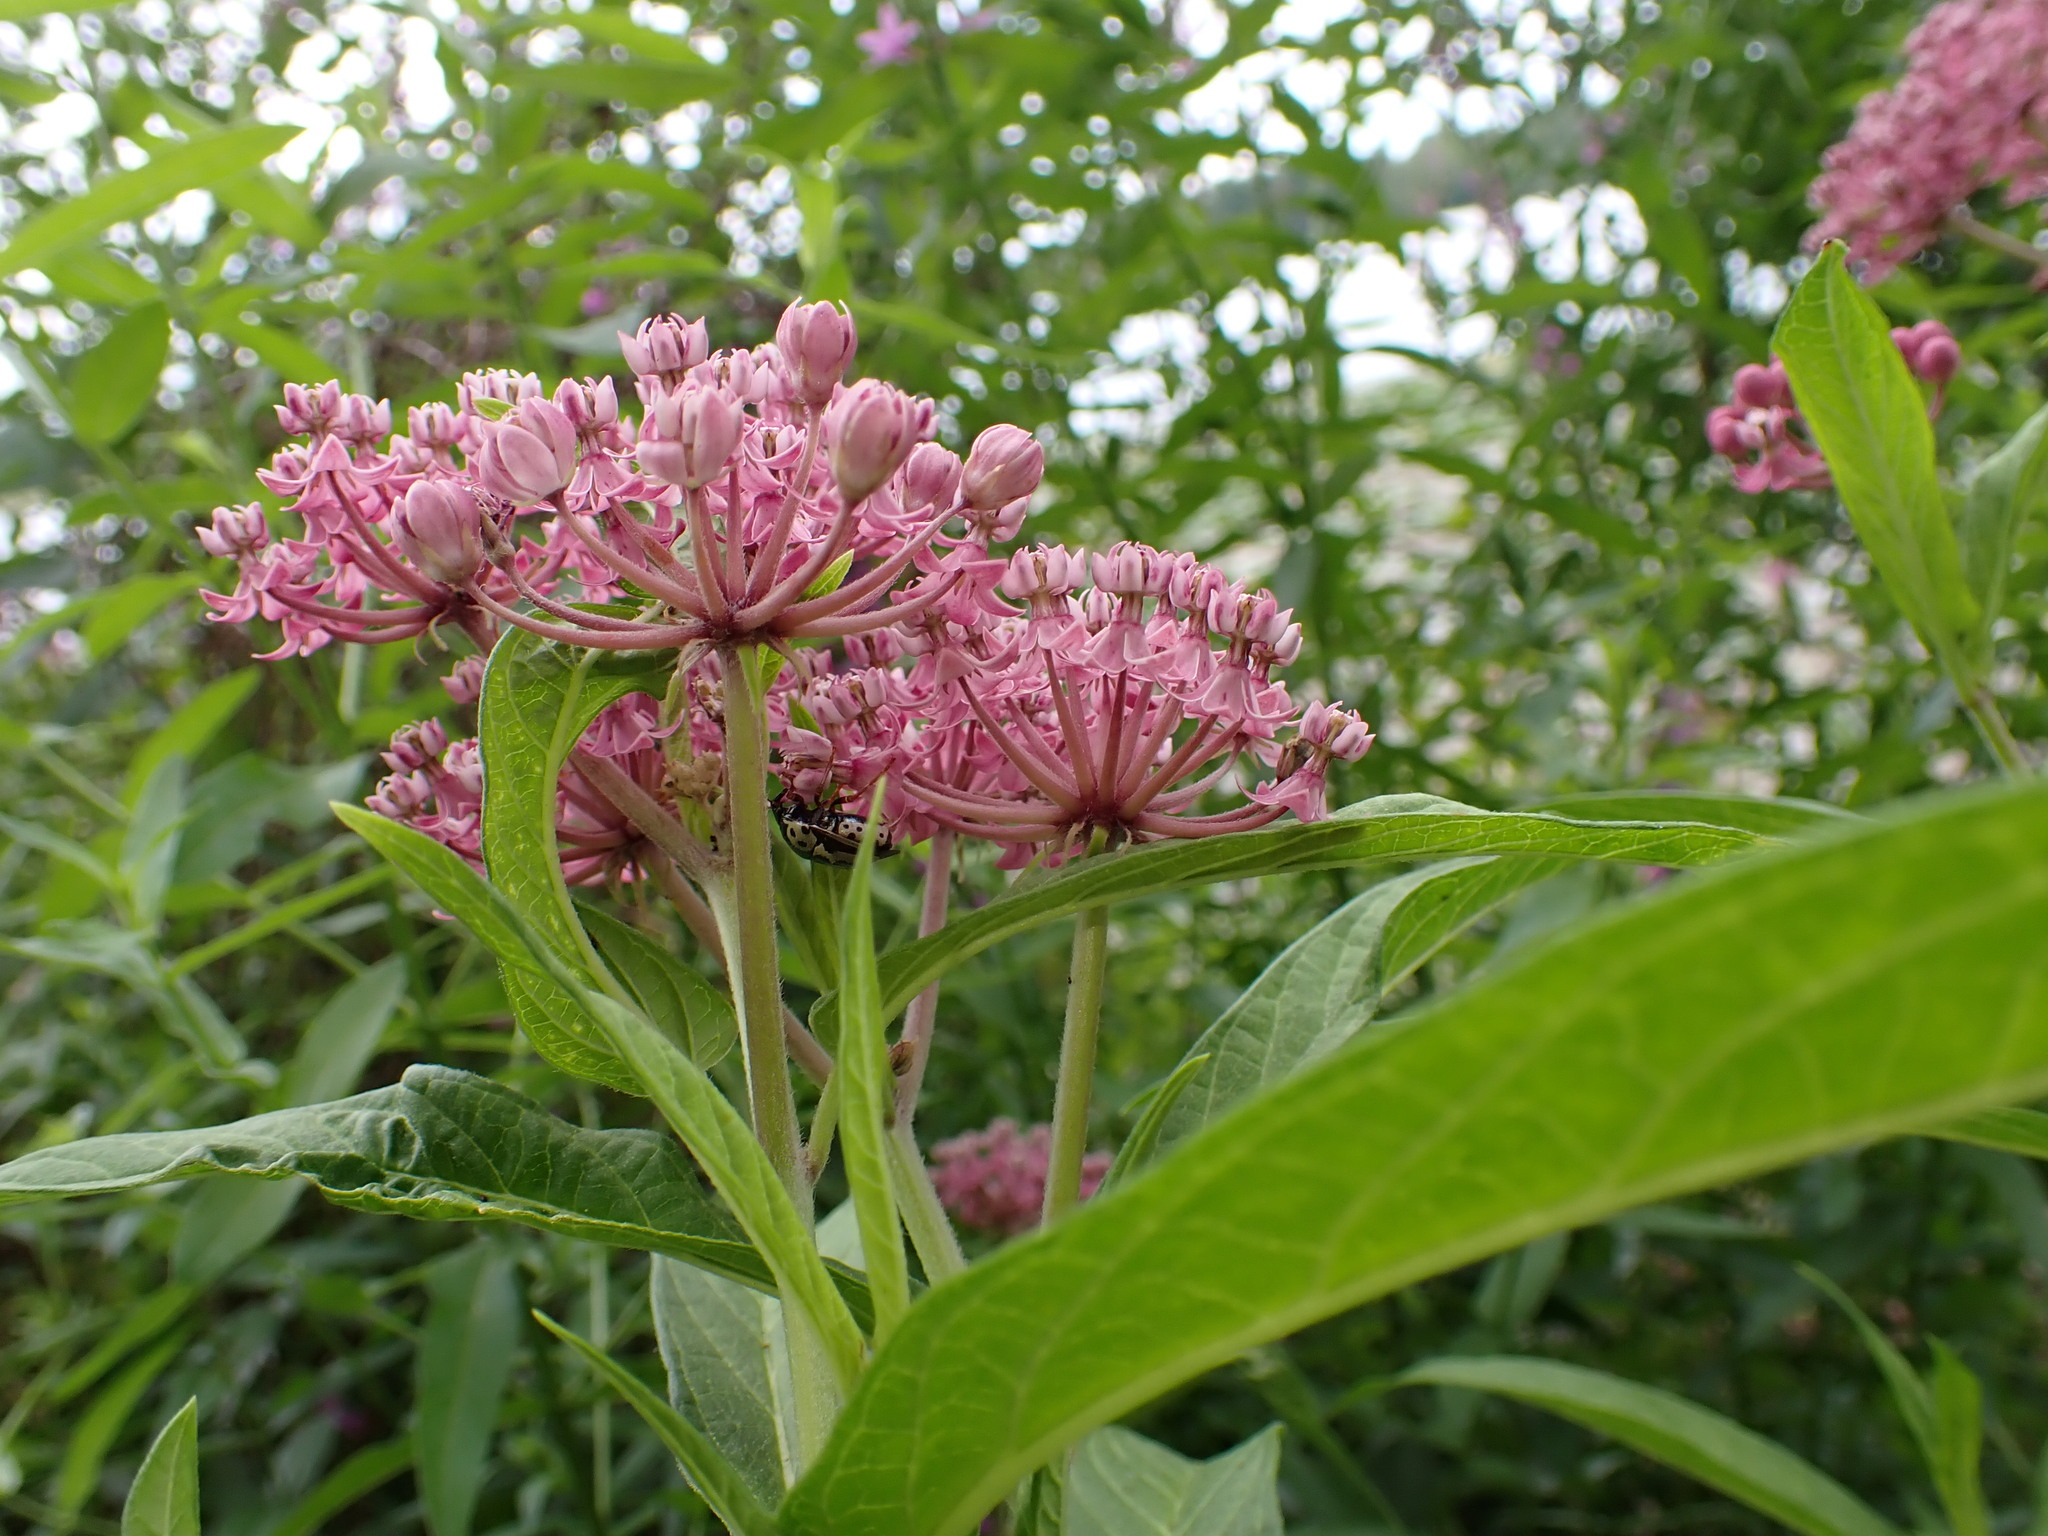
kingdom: Plantae
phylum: Tracheophyta
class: Magnoliopsida
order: Gentianales
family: Apocynaceae
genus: Asclepias
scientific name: Asclepias incarnata
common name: Swamp milkweed
